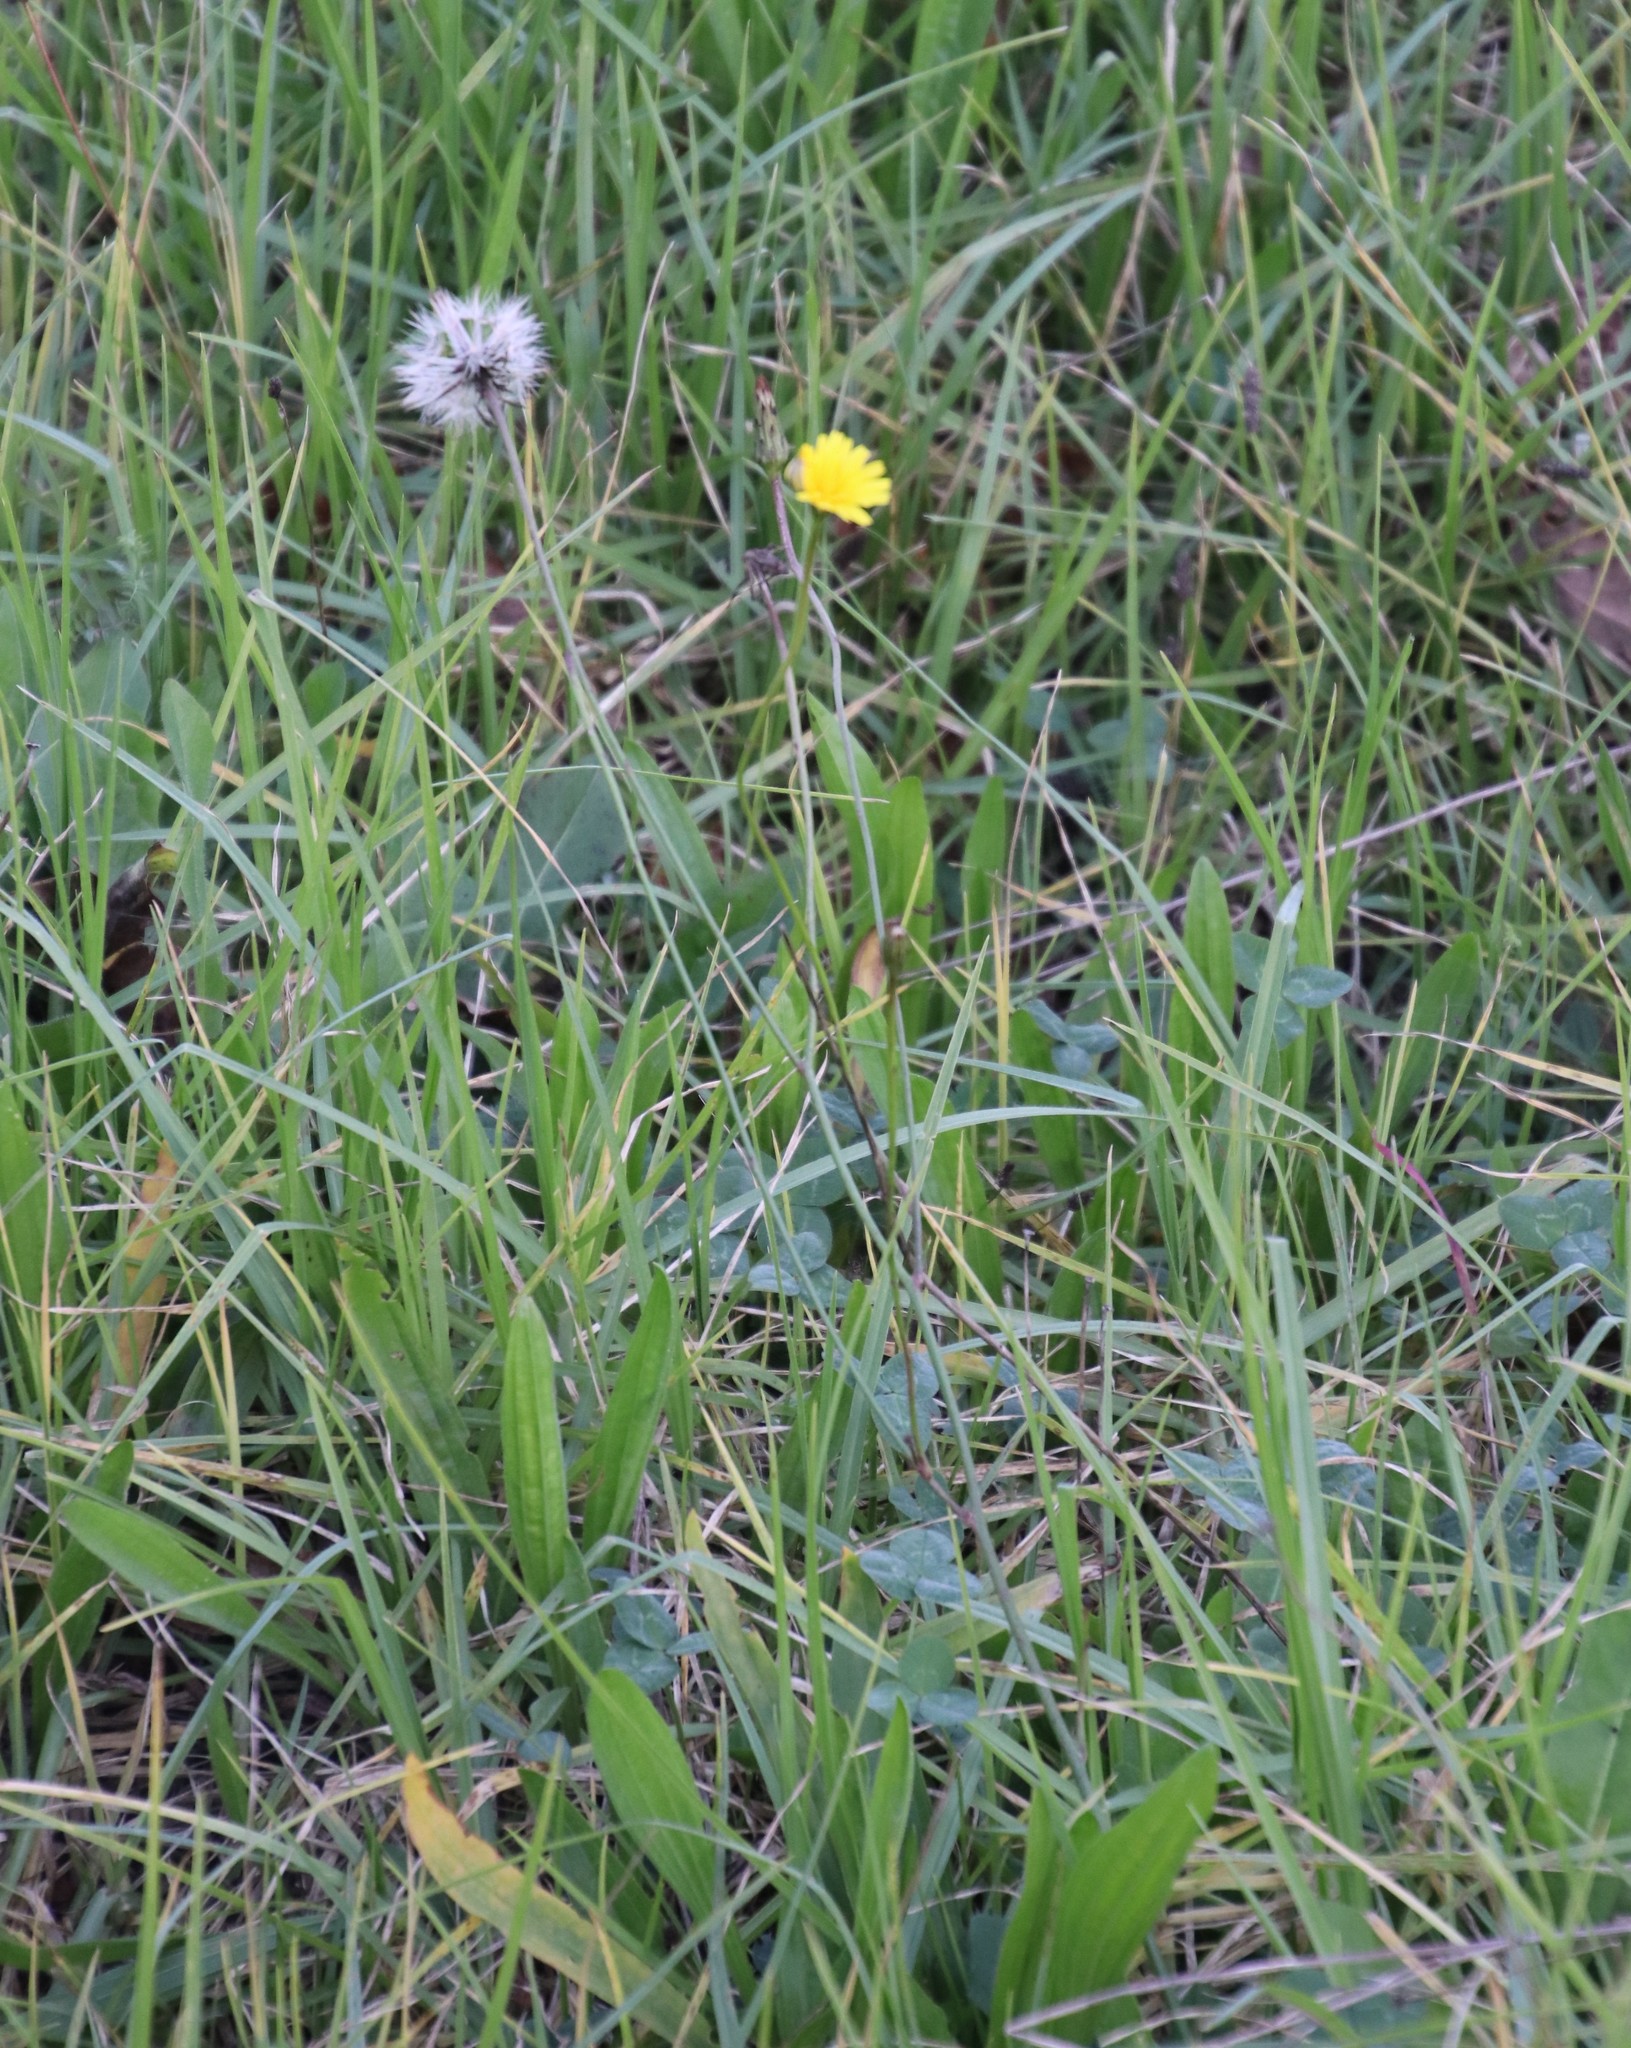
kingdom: Plantae
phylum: Tracheophyta
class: Magnoliopsida
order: Asterales
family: Asteraceae
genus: Hypochaeris
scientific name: Hypochaeris radicata
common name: Flatweed
